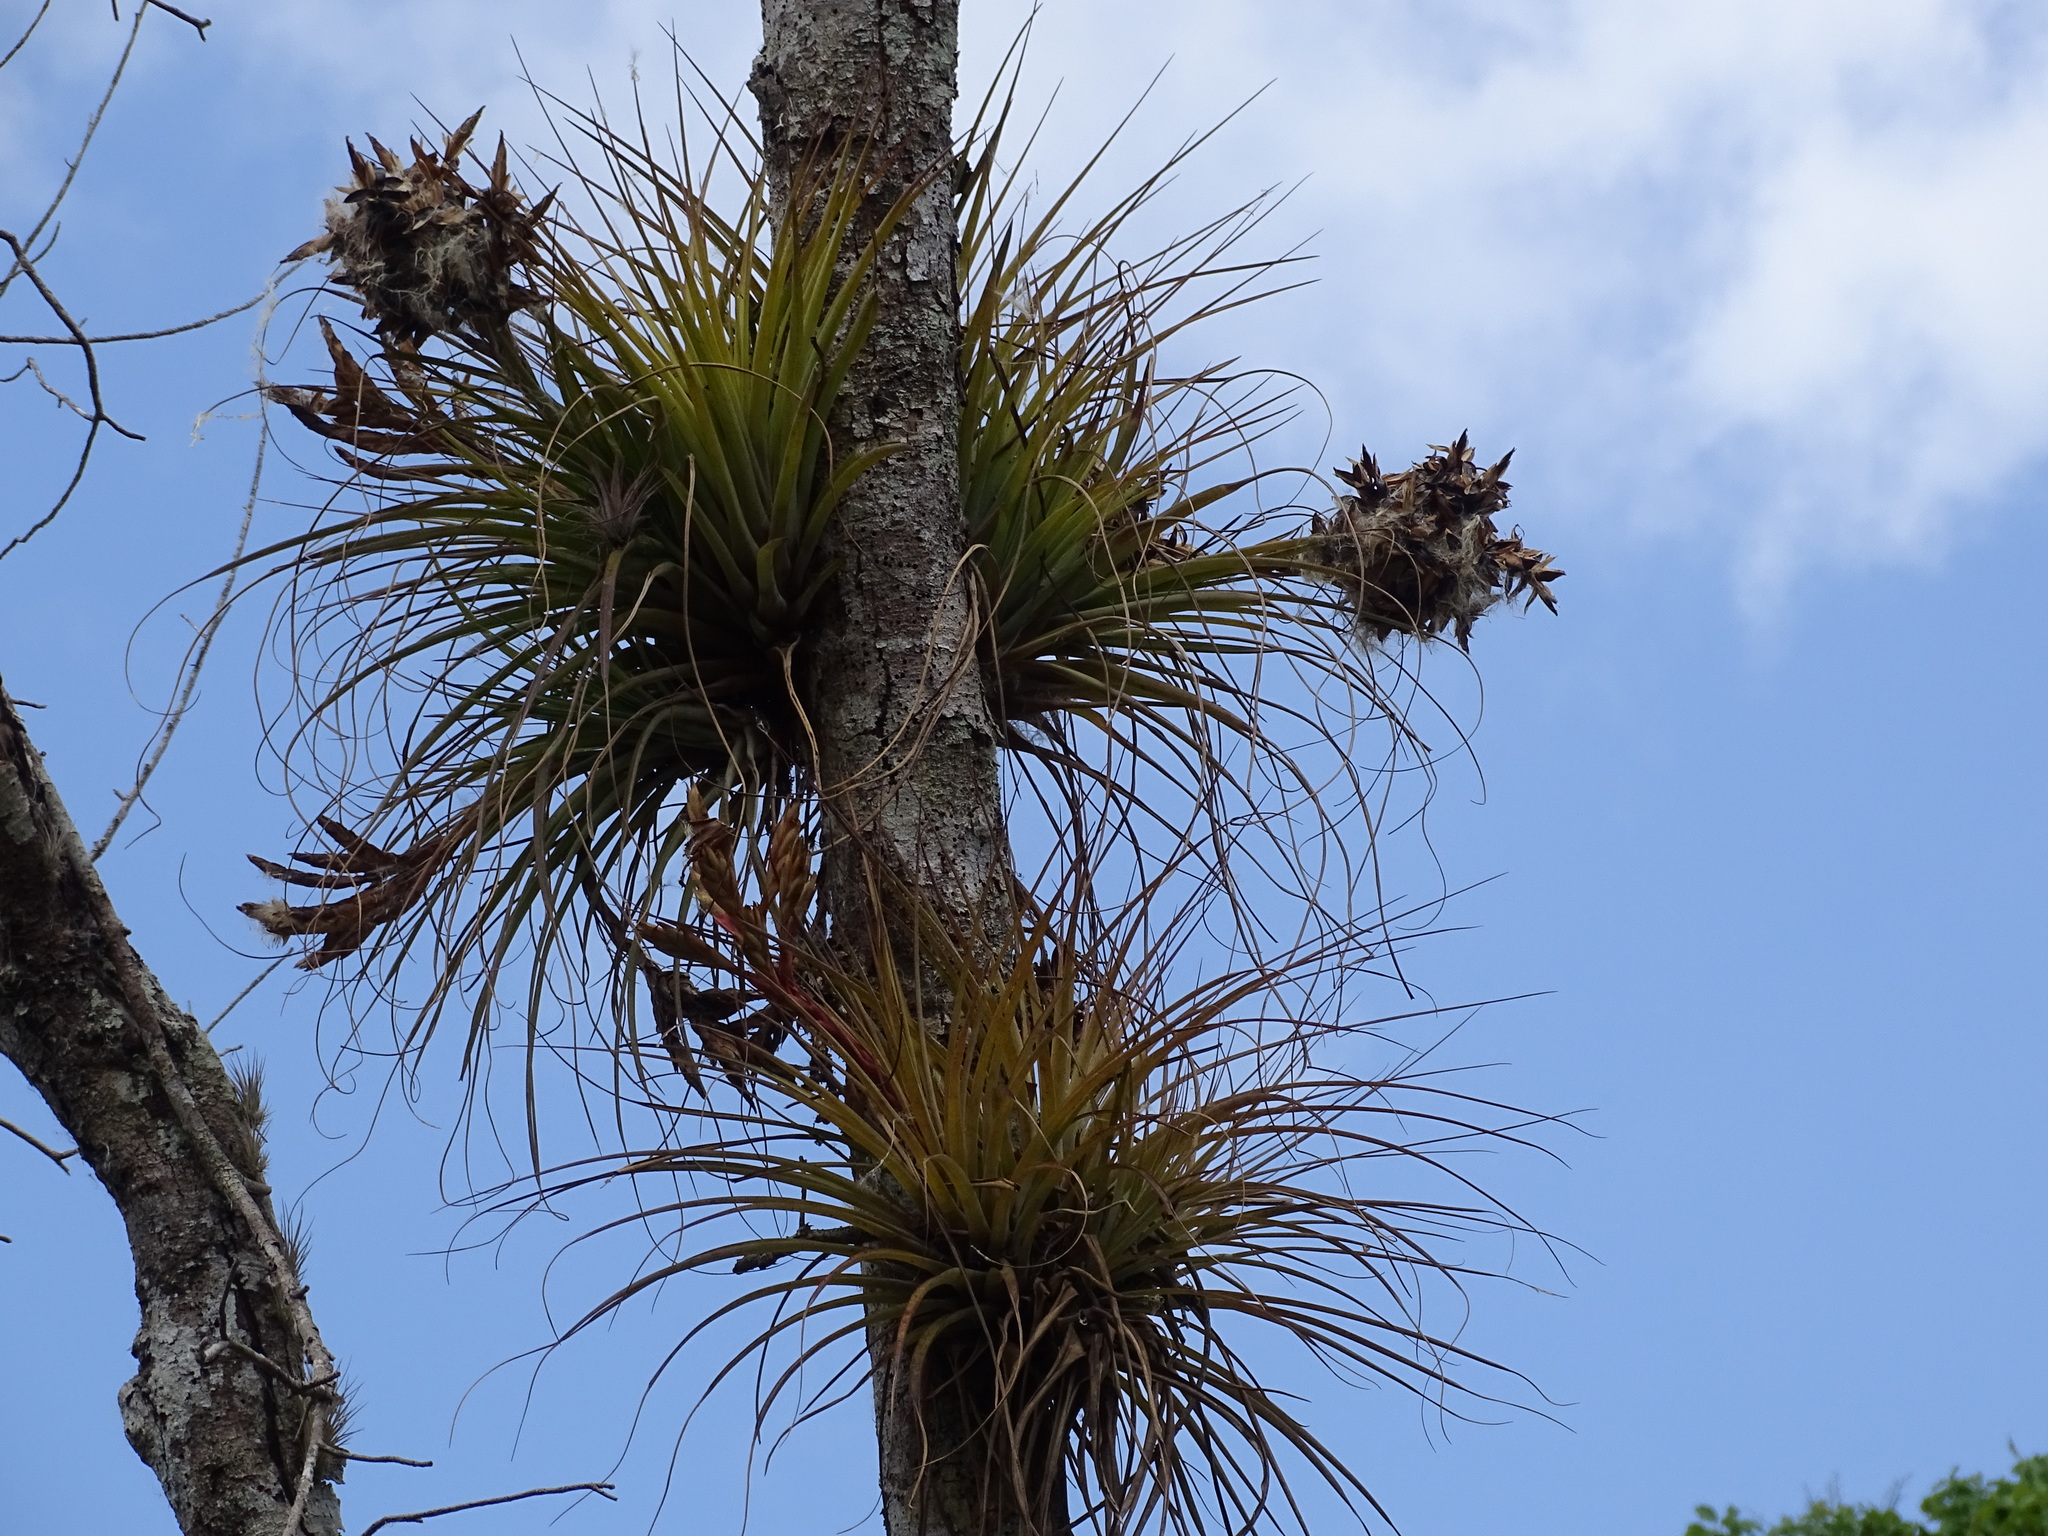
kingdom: Plantae
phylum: Tracheophyta
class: Liliopsida
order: Poales
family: Bromeliaceae
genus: Tillandsia
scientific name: Tillandsia fasciculata
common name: Giant airplant
